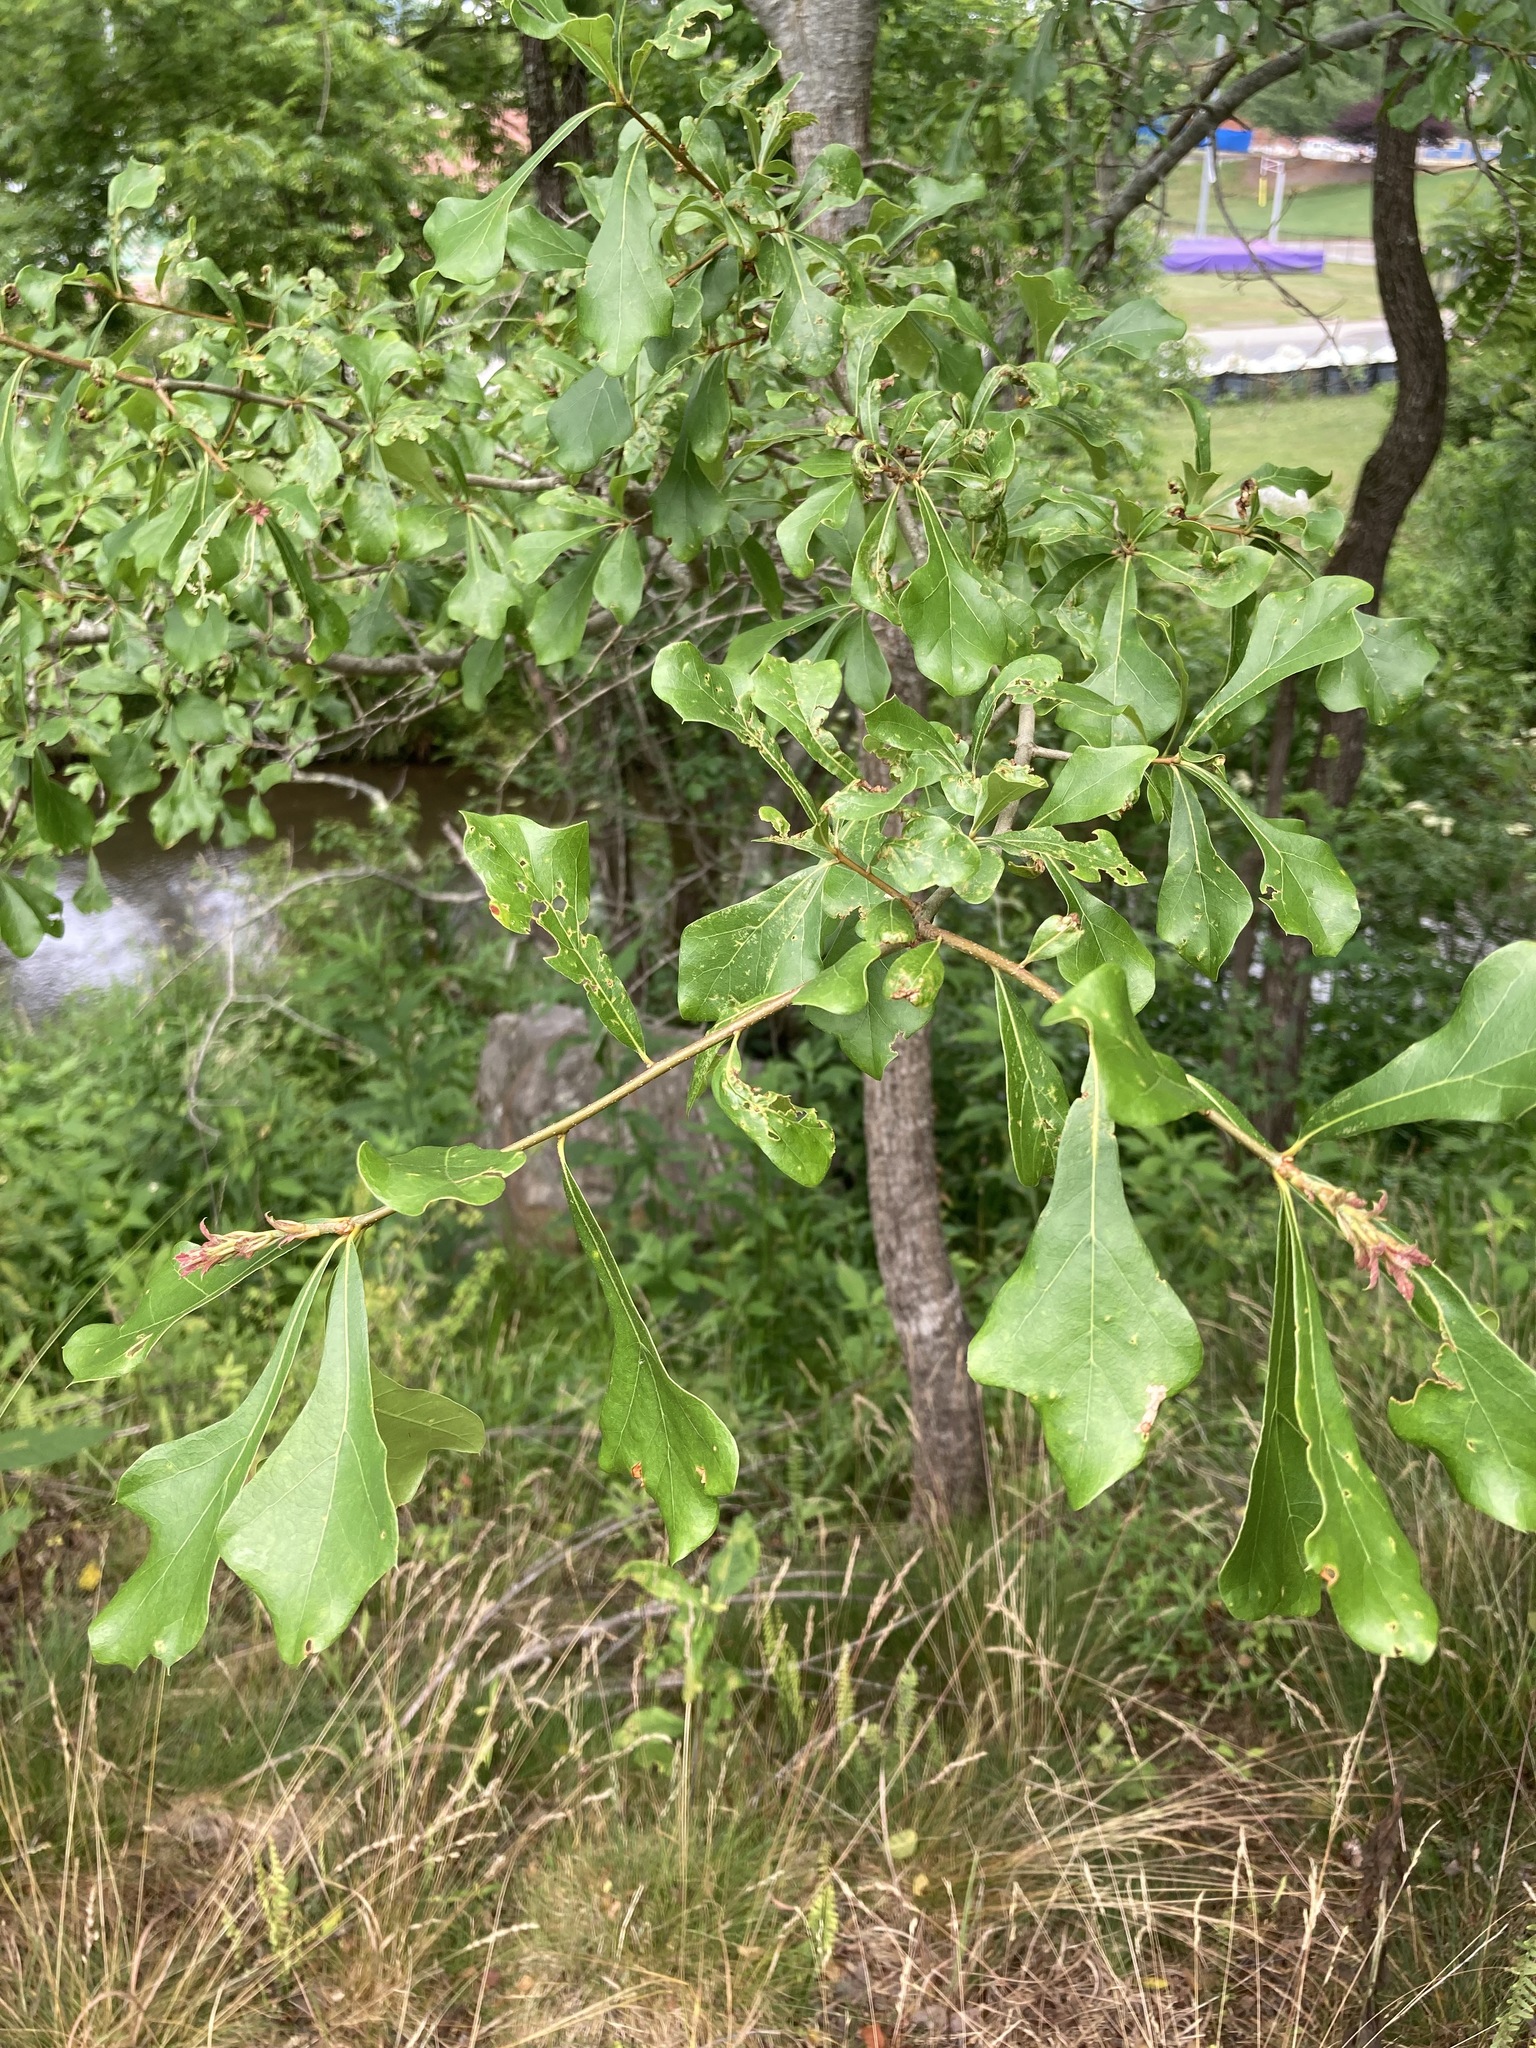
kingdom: Plantae
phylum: Tracheophyta
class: Magnoliopsida
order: Fagales
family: Fagaceae
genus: Quercus
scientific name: Quercus nigra
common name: Water oak
